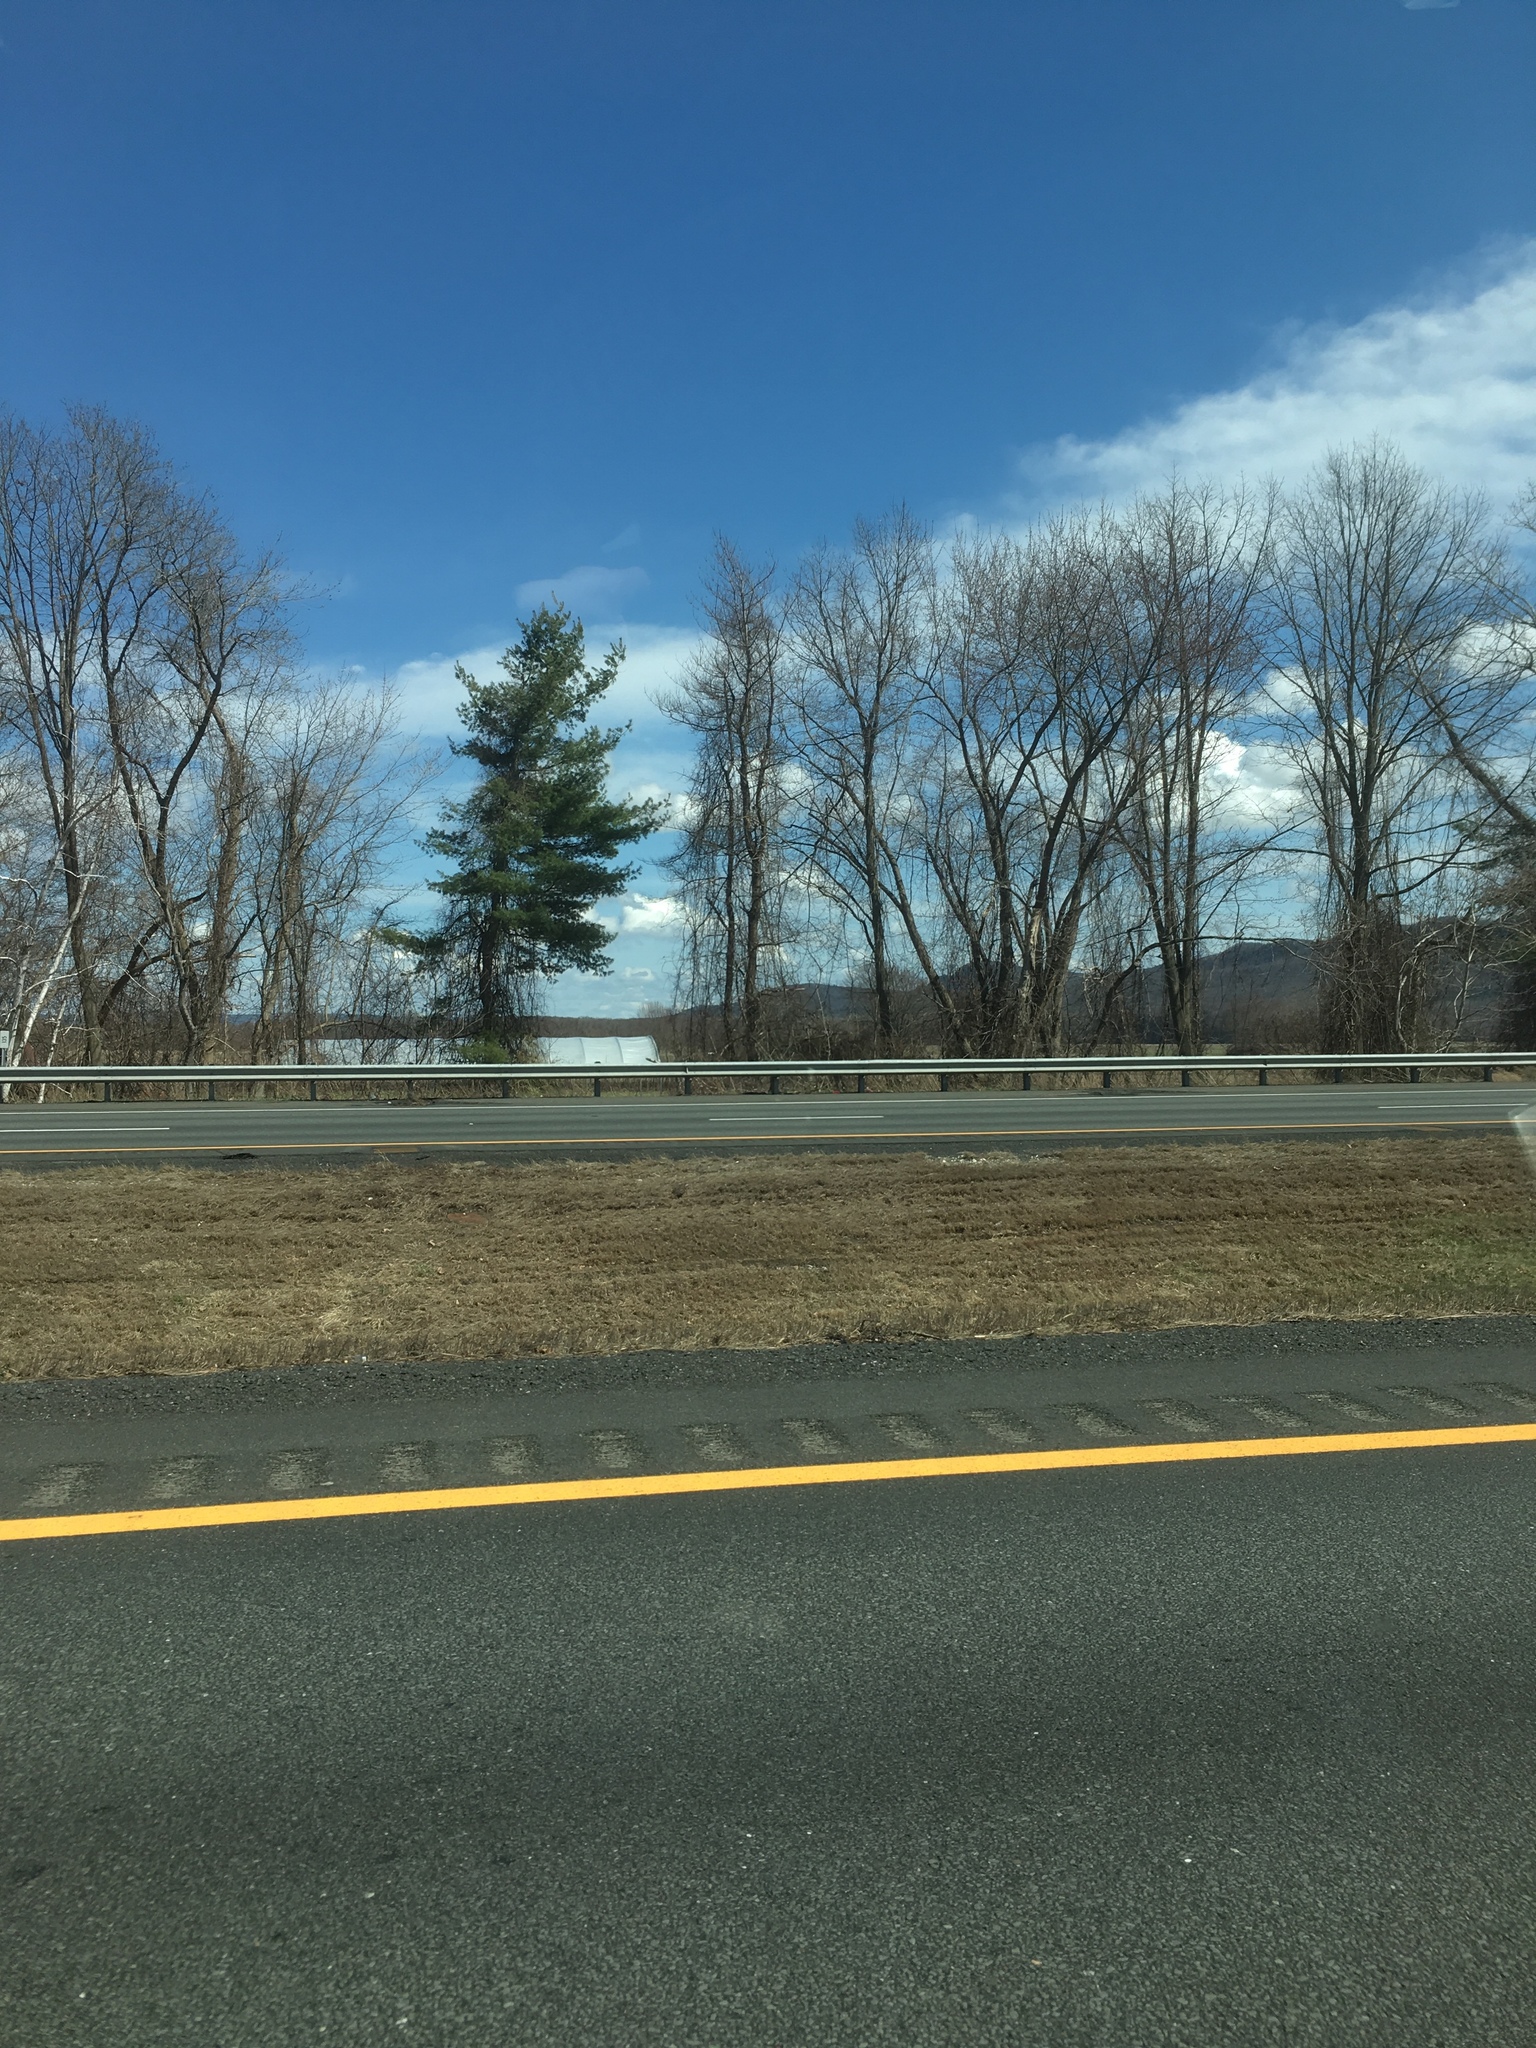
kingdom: Plantae
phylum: Tracheophyta
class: Pinopsida
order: Pinales
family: Pinaceae
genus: Pinus
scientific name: Pinus strobus
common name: Weymouth pine
